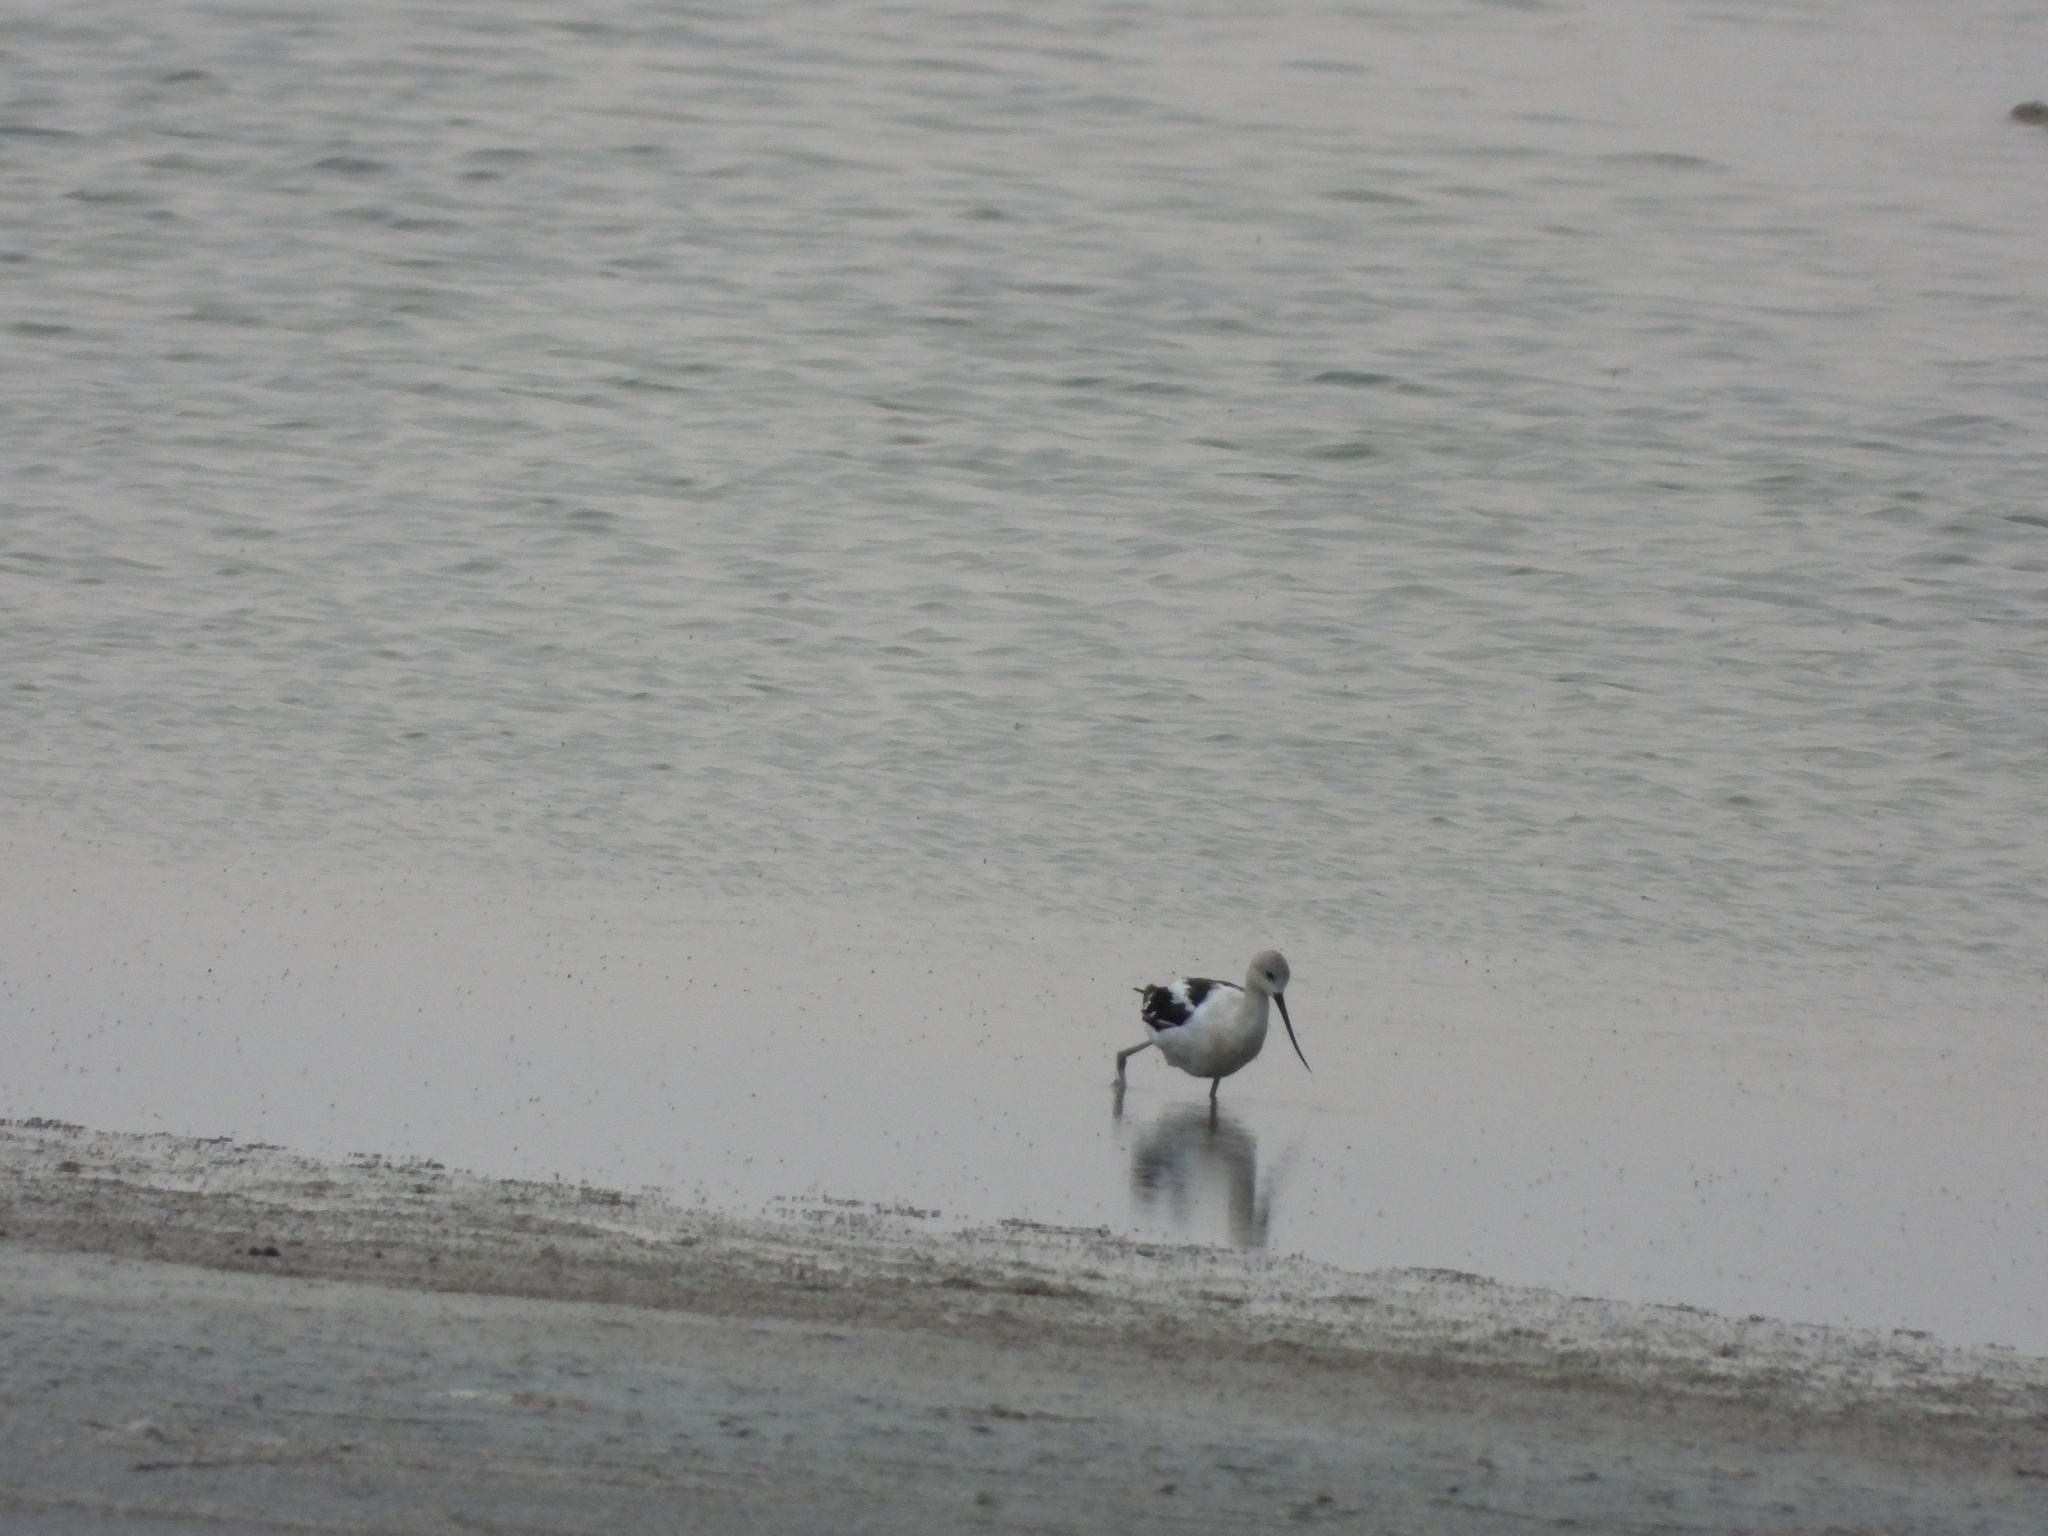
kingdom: Animalia
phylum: Chordata
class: Aves
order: Charadriiformes
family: Recurvirostridae
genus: Recurvirostra
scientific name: Recurvirostra americana
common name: American avocet
